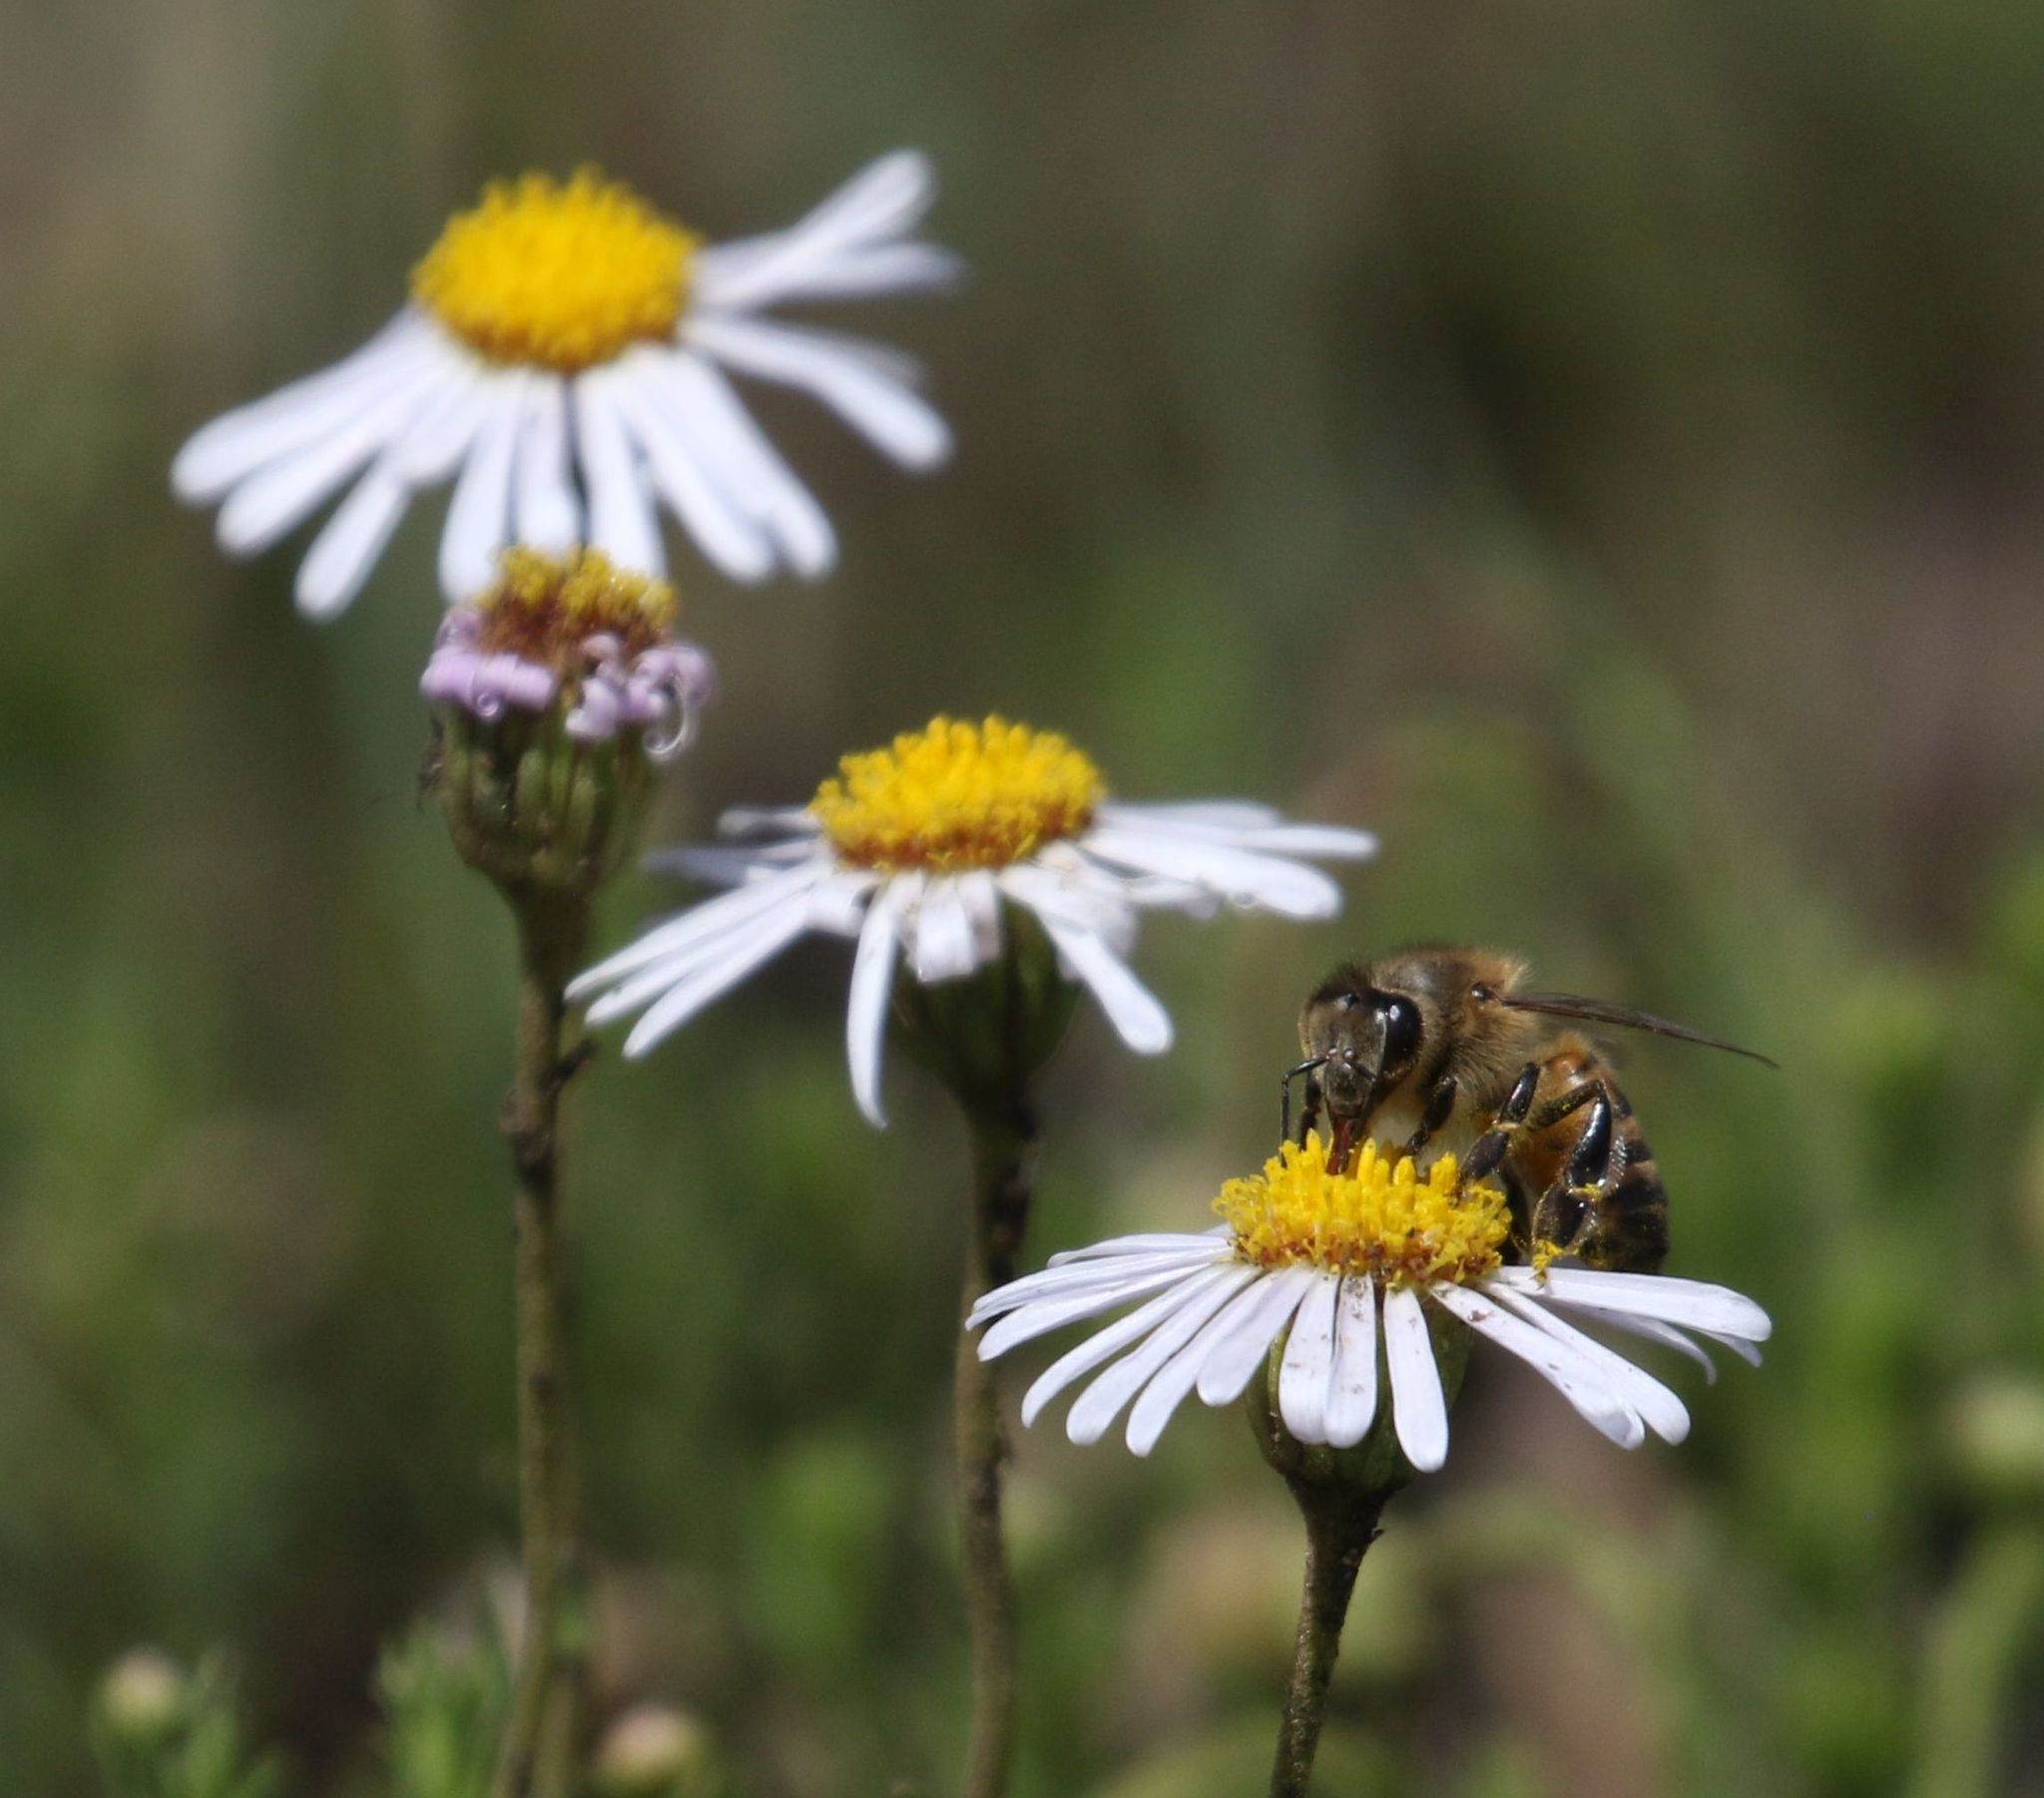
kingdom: Animalia
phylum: Arthropoda
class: Insecta
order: Hymenoptera
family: Apidae
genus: Apis
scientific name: Apis mellifera
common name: Honey bee
